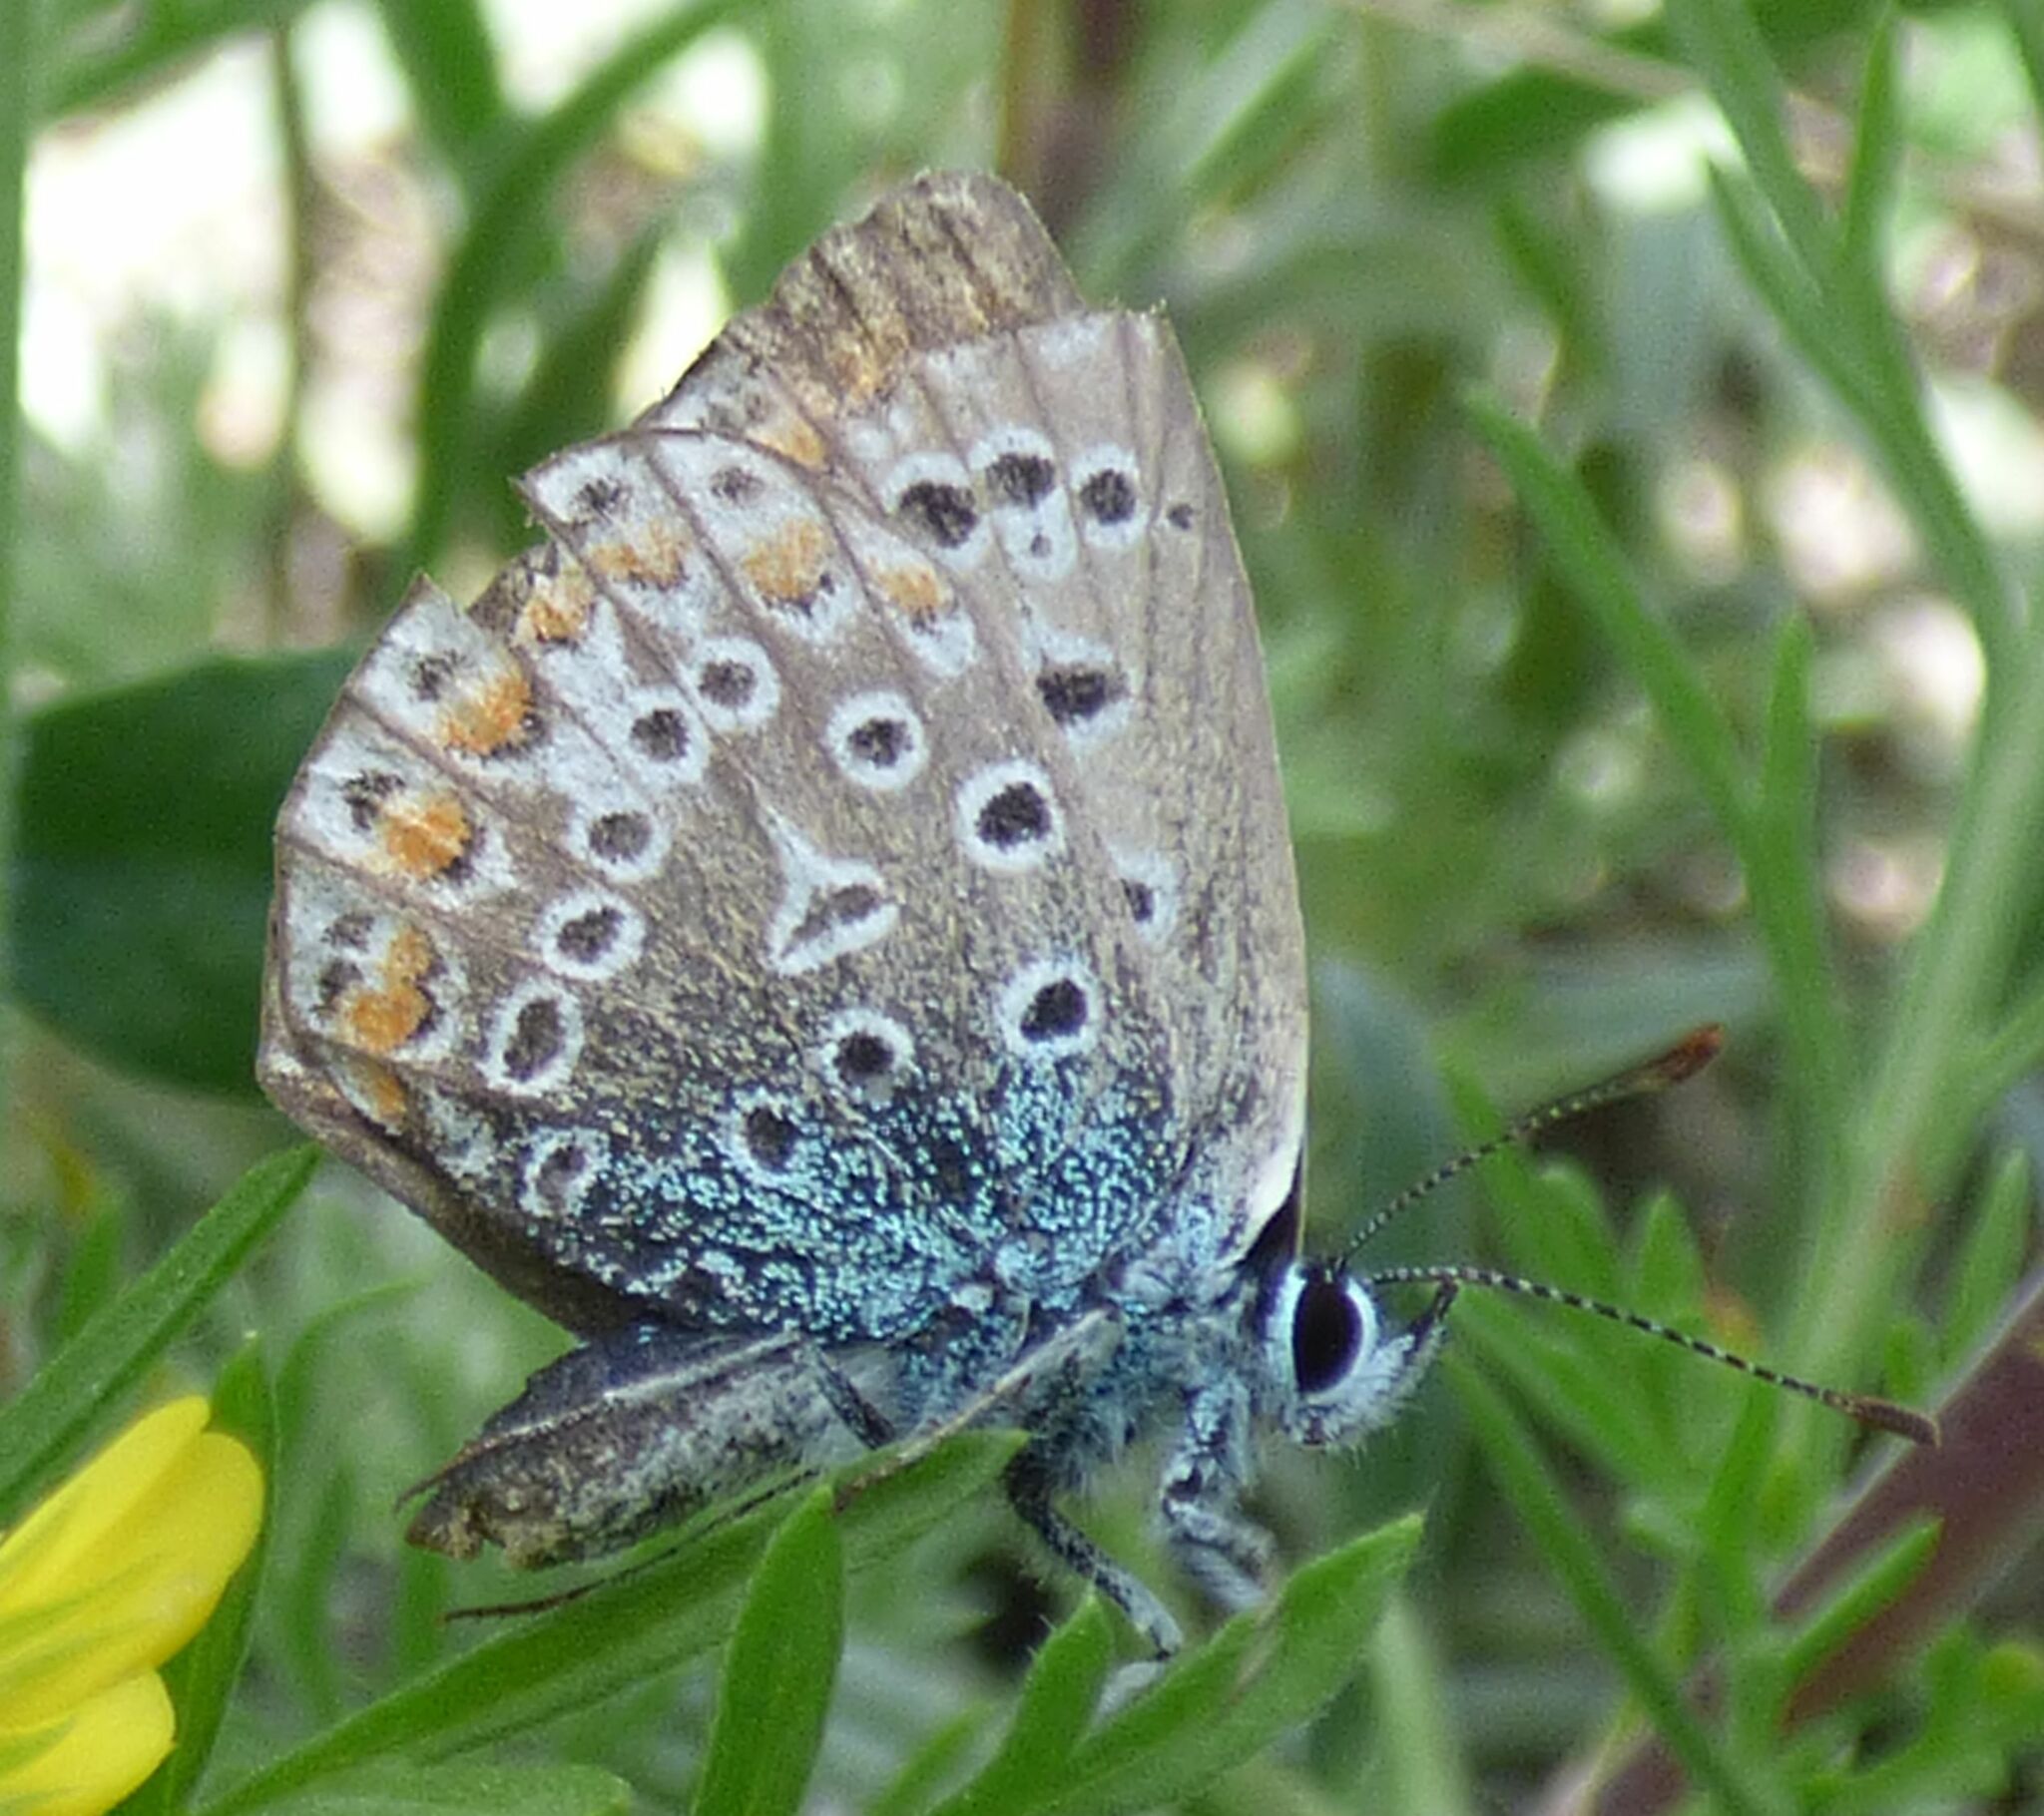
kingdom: Animalia
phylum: Arthropoda
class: Insecta
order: Lepidoptera
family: Lycaenidae
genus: Polyommatus
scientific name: Polyommatus icarus
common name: Common blue
